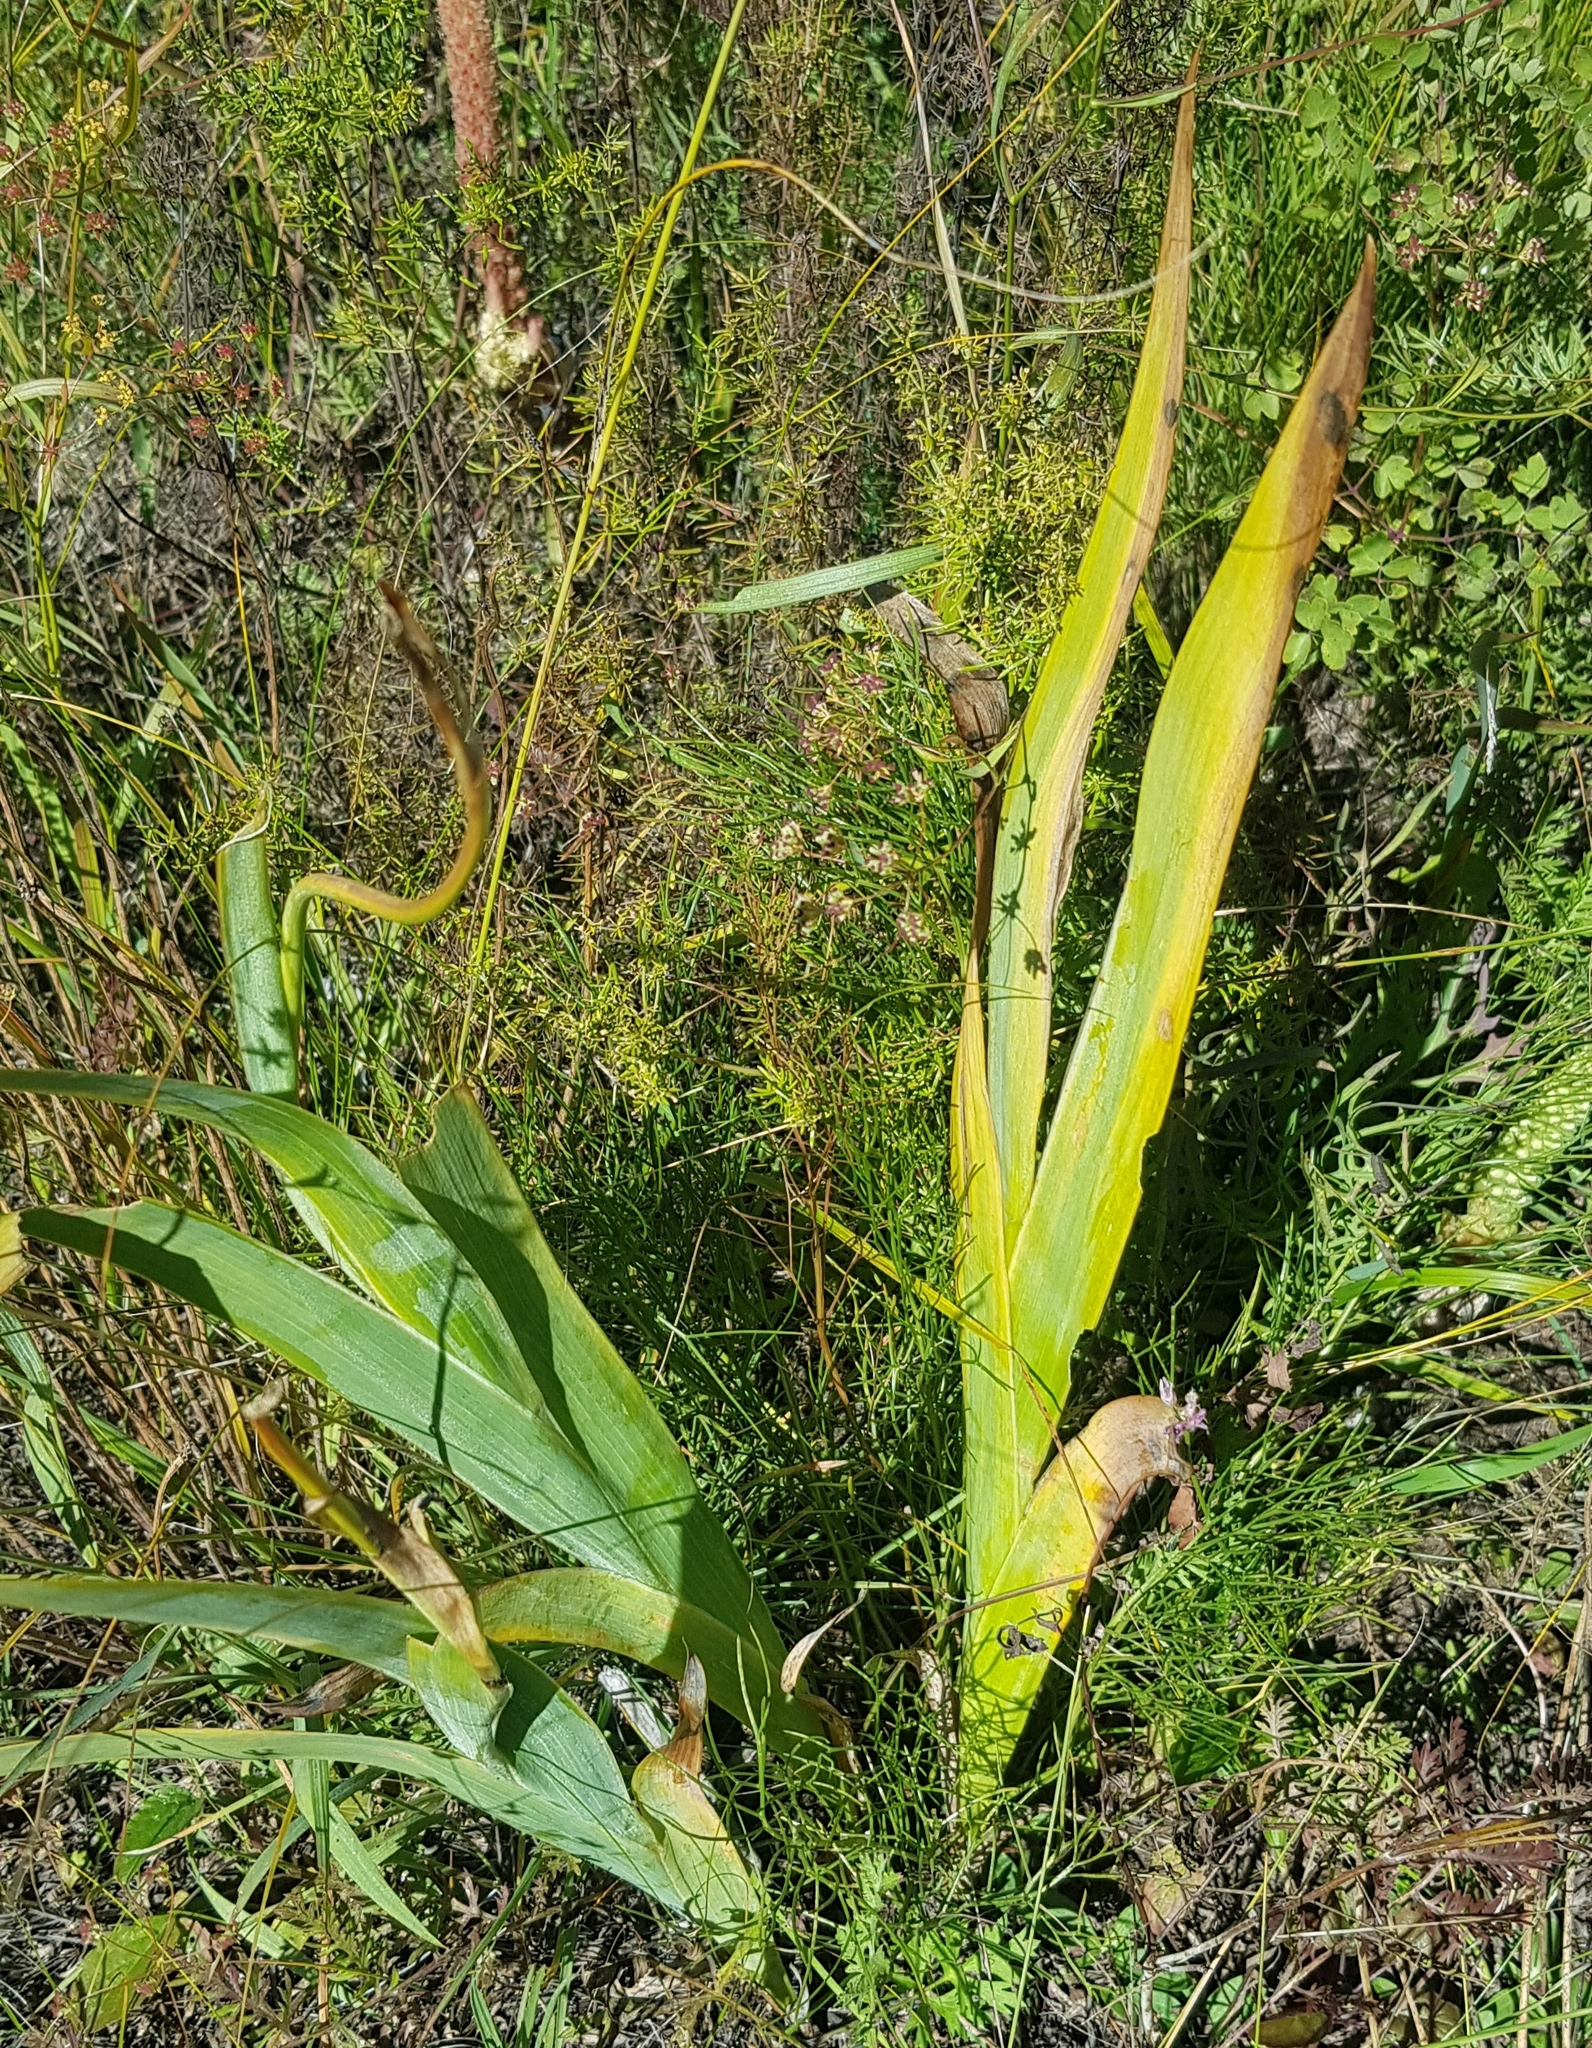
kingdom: Plantae
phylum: Tracheophyta
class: Liliopsida
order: Asparagales
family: Iridaceae
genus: Iris
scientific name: Iris dichotoma
